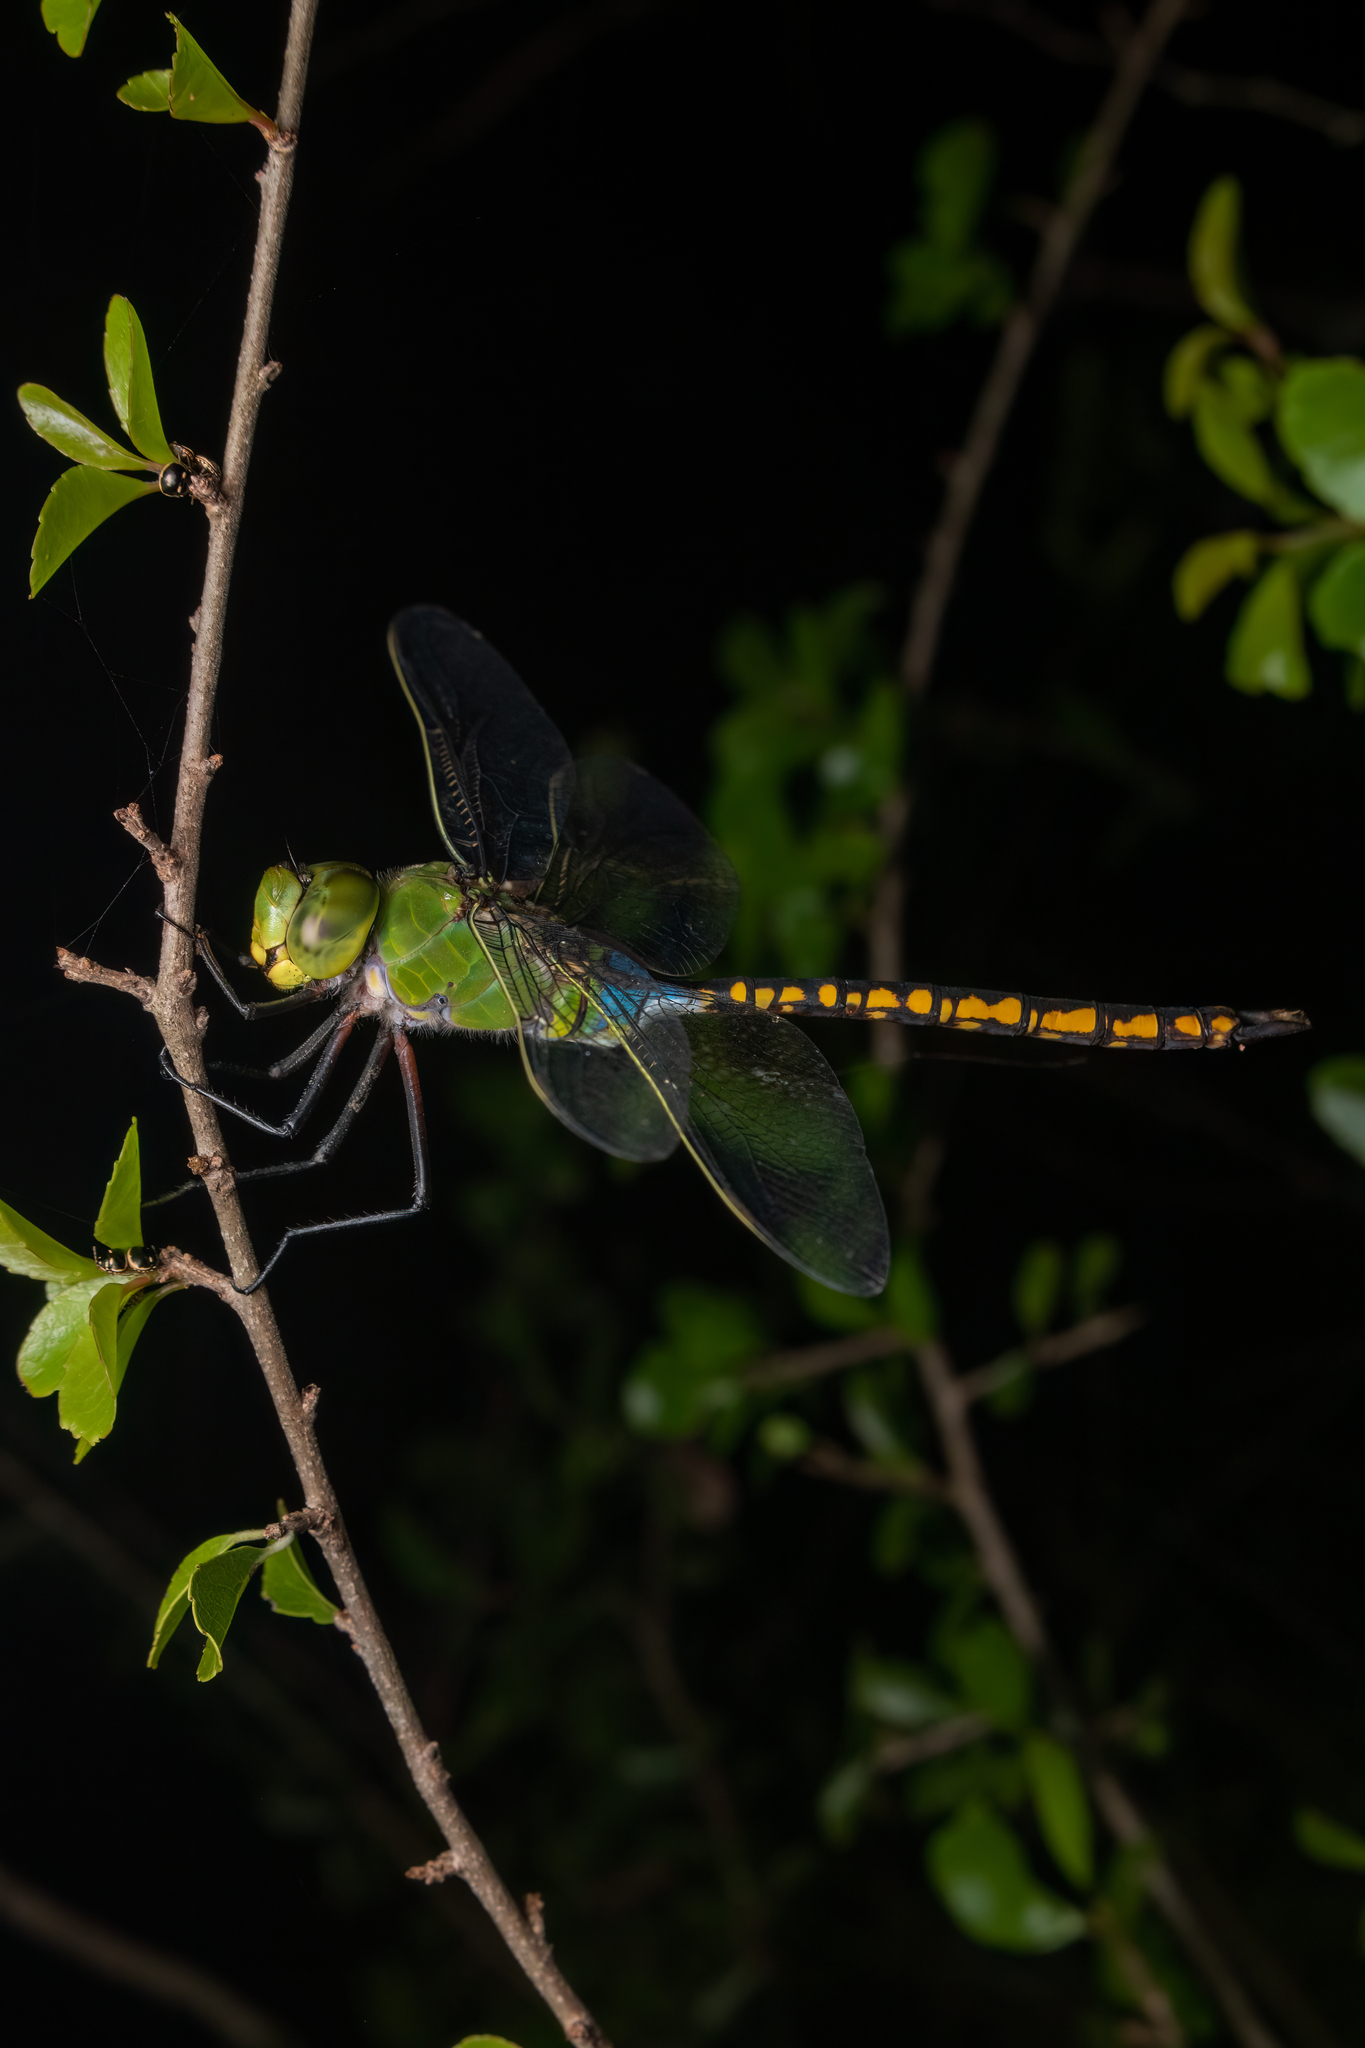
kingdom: Animalia
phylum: Arthropoda
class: Insecta
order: Odonata
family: Aeshnidae
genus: Anax
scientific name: Anax indicus
